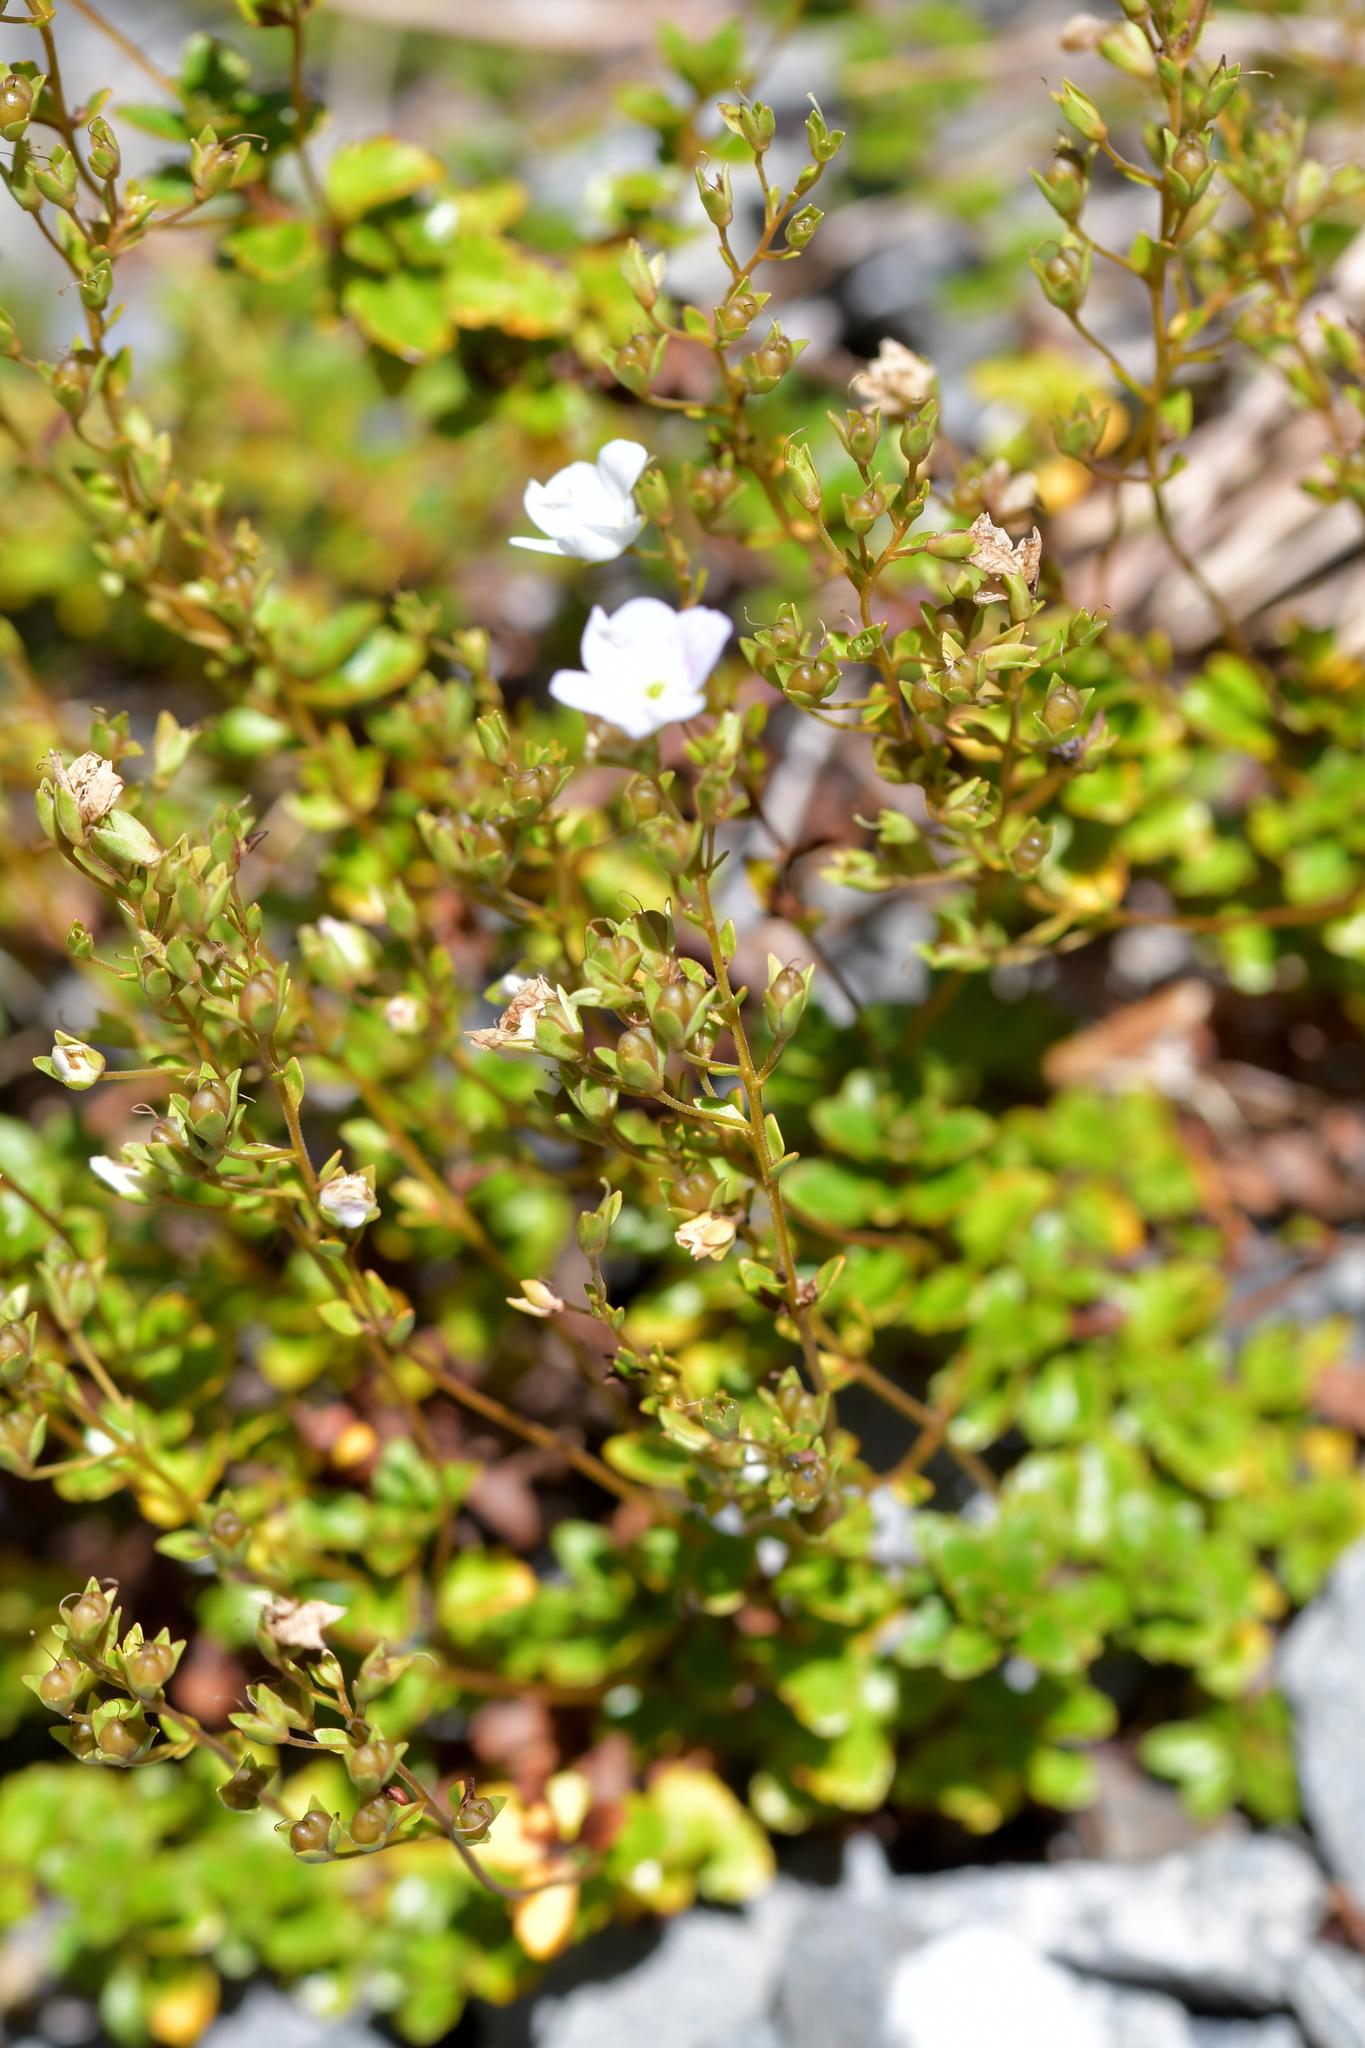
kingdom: Plantae
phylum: Tracheophyta
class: Magnoliopsida
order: Lamiales
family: Plantaginaceae
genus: Veronica
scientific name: Veronica lyallii
